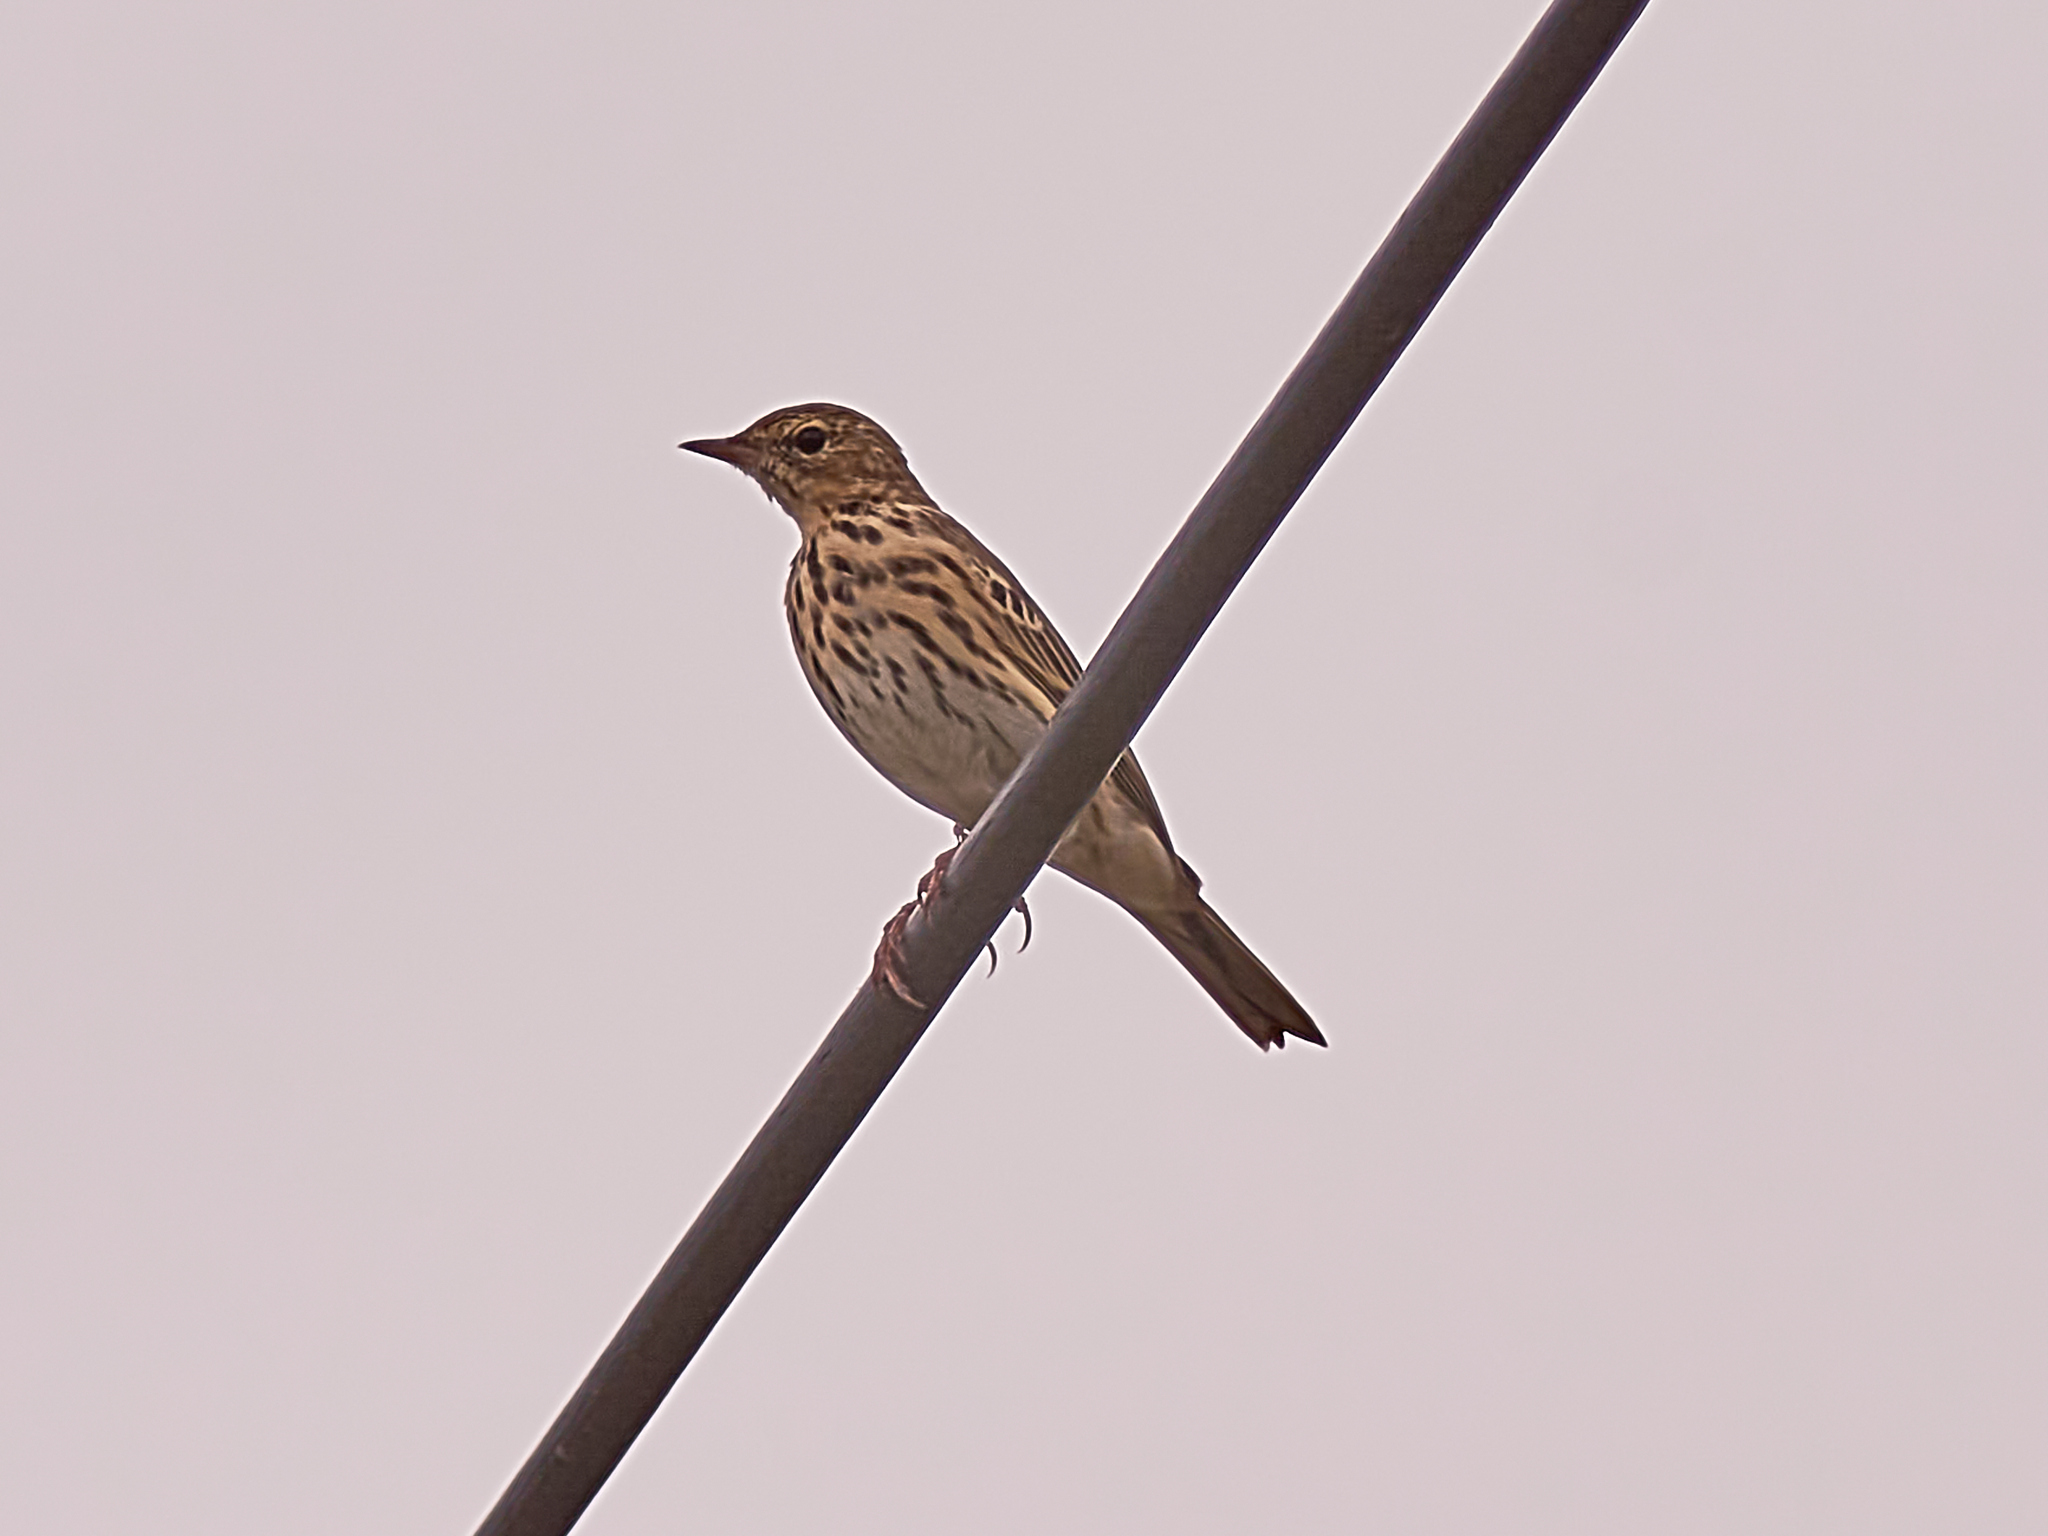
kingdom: Animalia
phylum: Chordata
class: Aves
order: Passeriformes
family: Motacillidae
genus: Anthus
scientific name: Anthus trivialis
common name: Tree pipit
